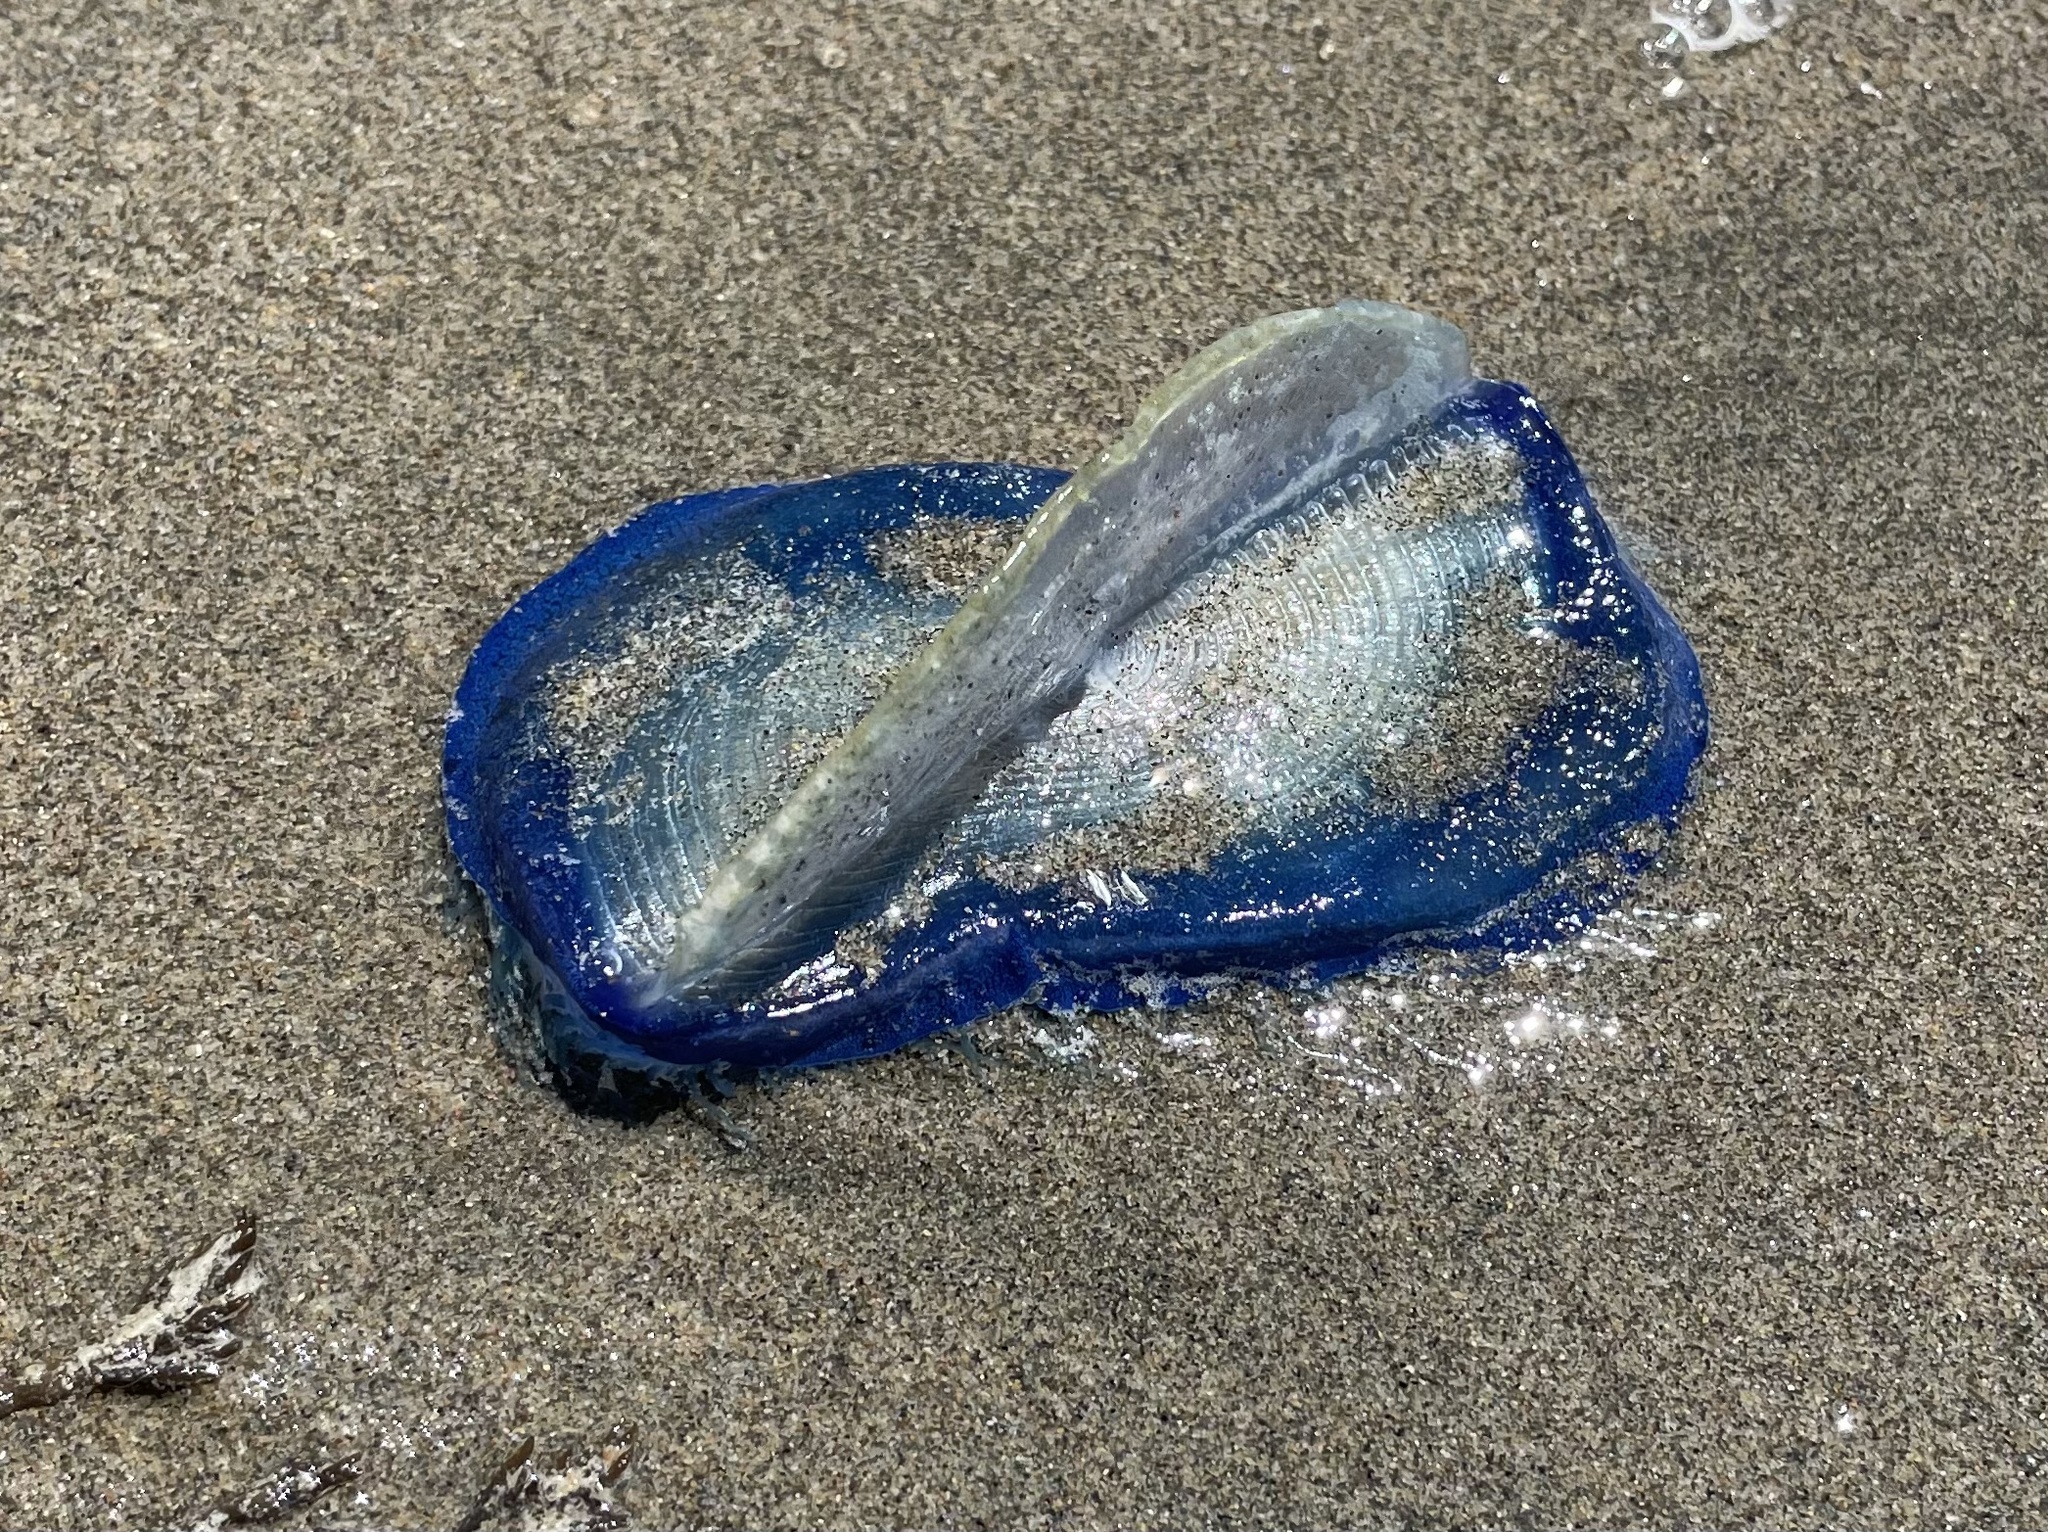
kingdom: Animalia
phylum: Cnidaria
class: Hydrozoa
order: Anthoathecata
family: Porpitidae
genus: Velella
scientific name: Velella velella
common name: By-the-wind-sailor
